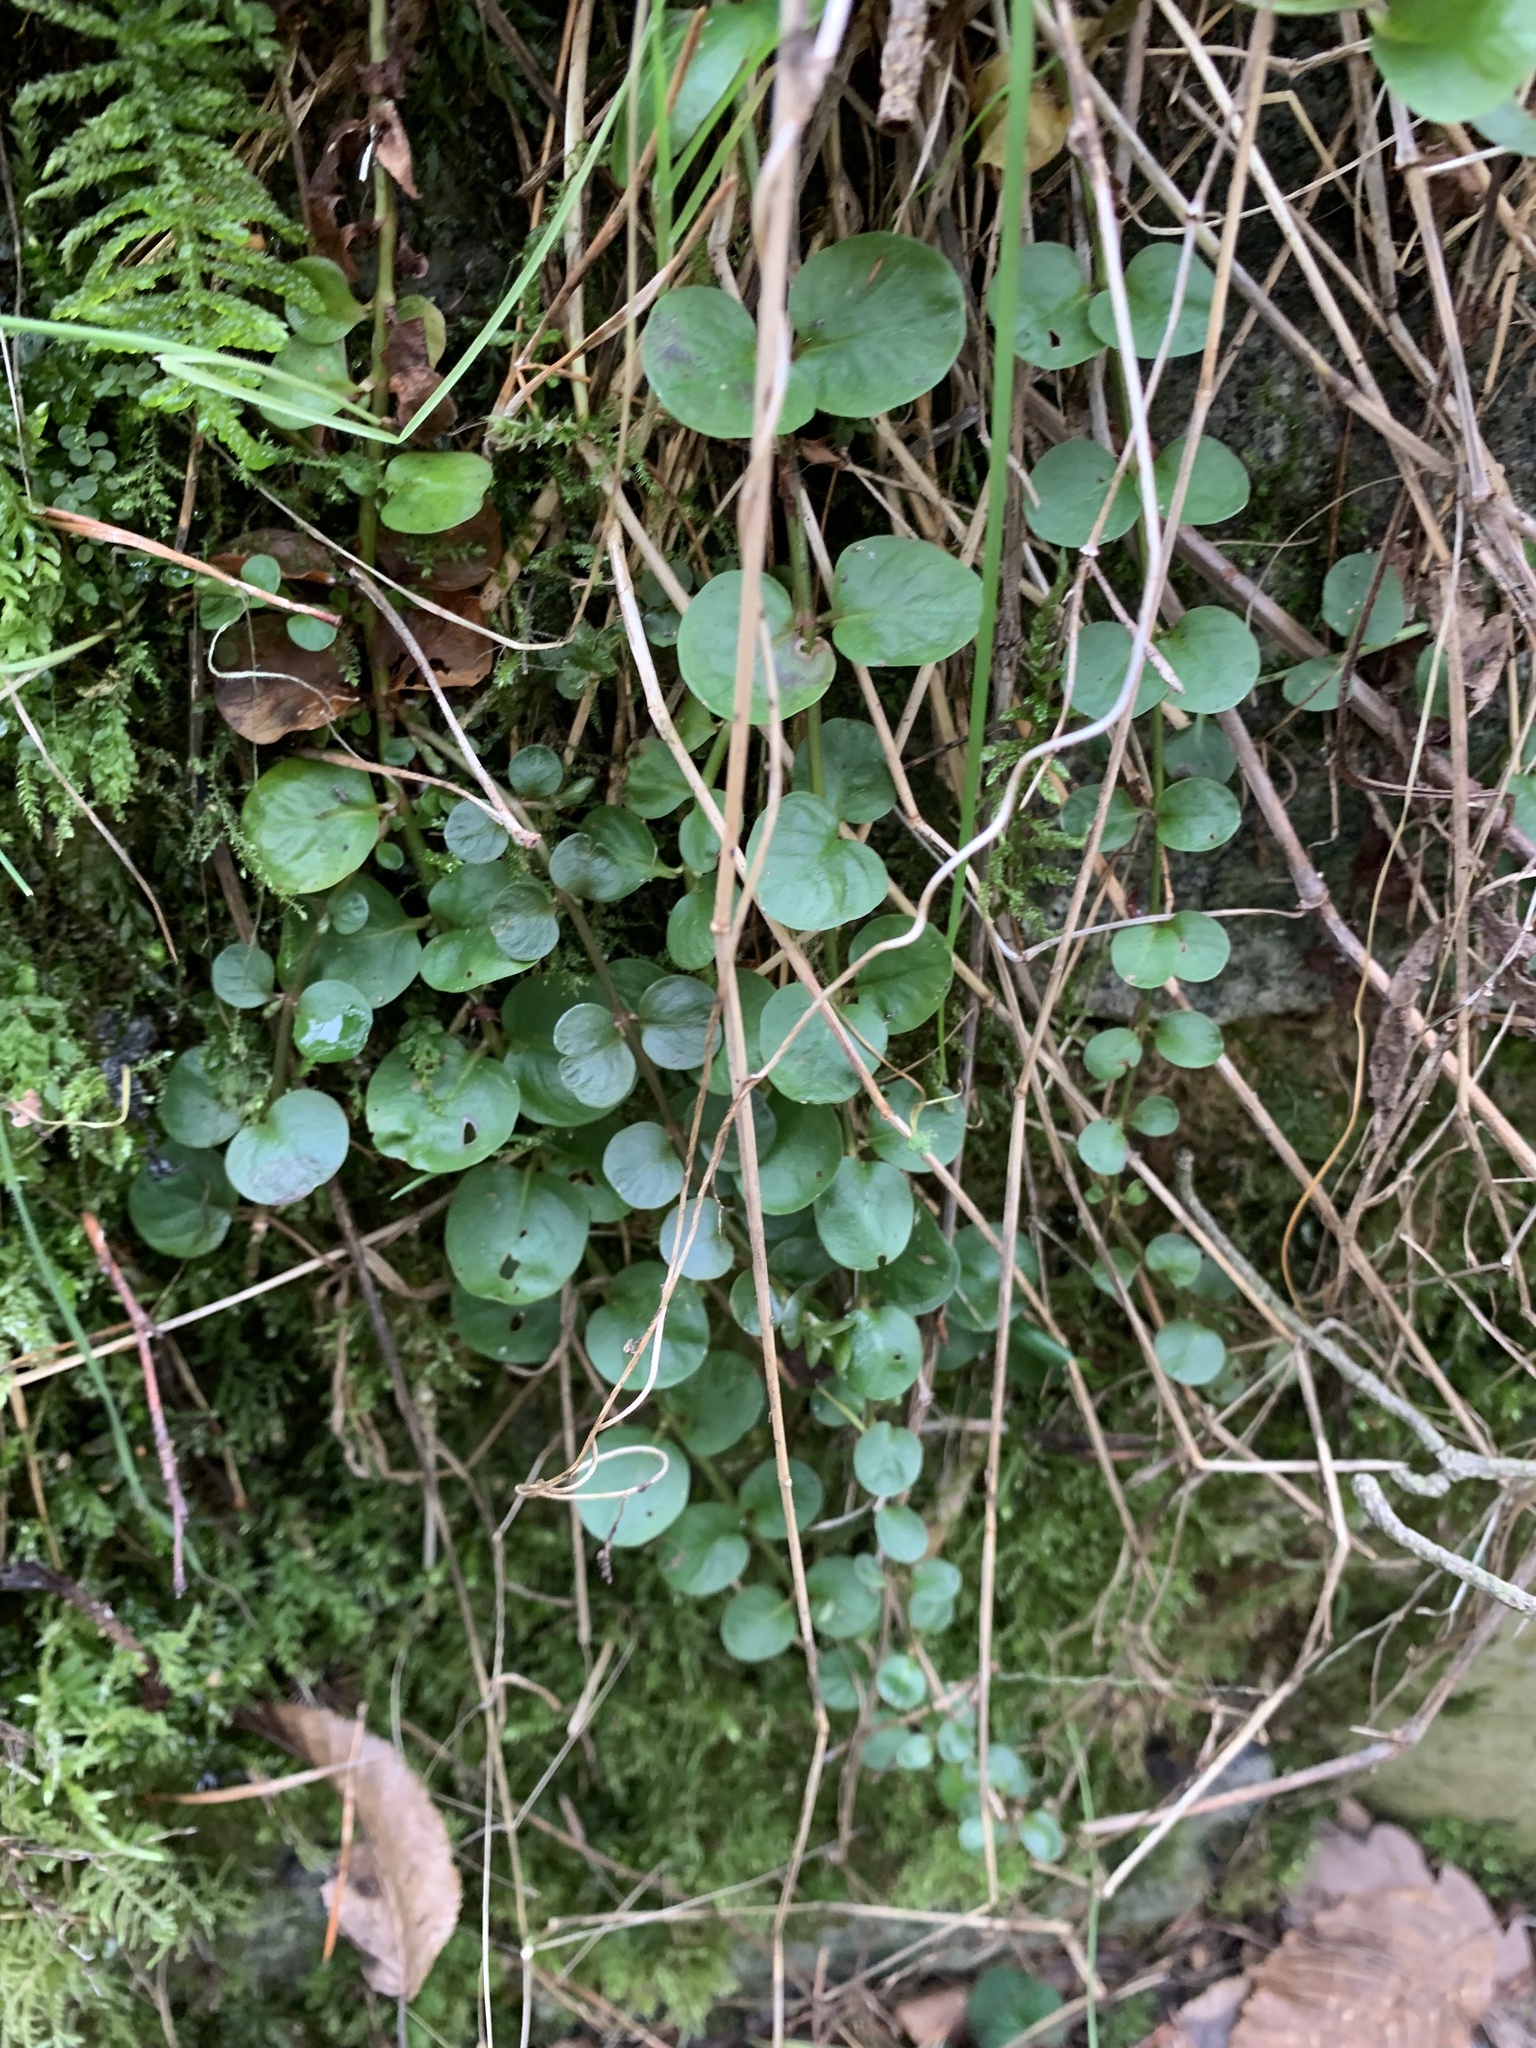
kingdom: Plantae
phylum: Tracheophyta
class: Magnoliopsida
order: Ericales
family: Primulaceae
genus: Lysimachia
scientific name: Lysimachia nummularia
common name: Moneywort
